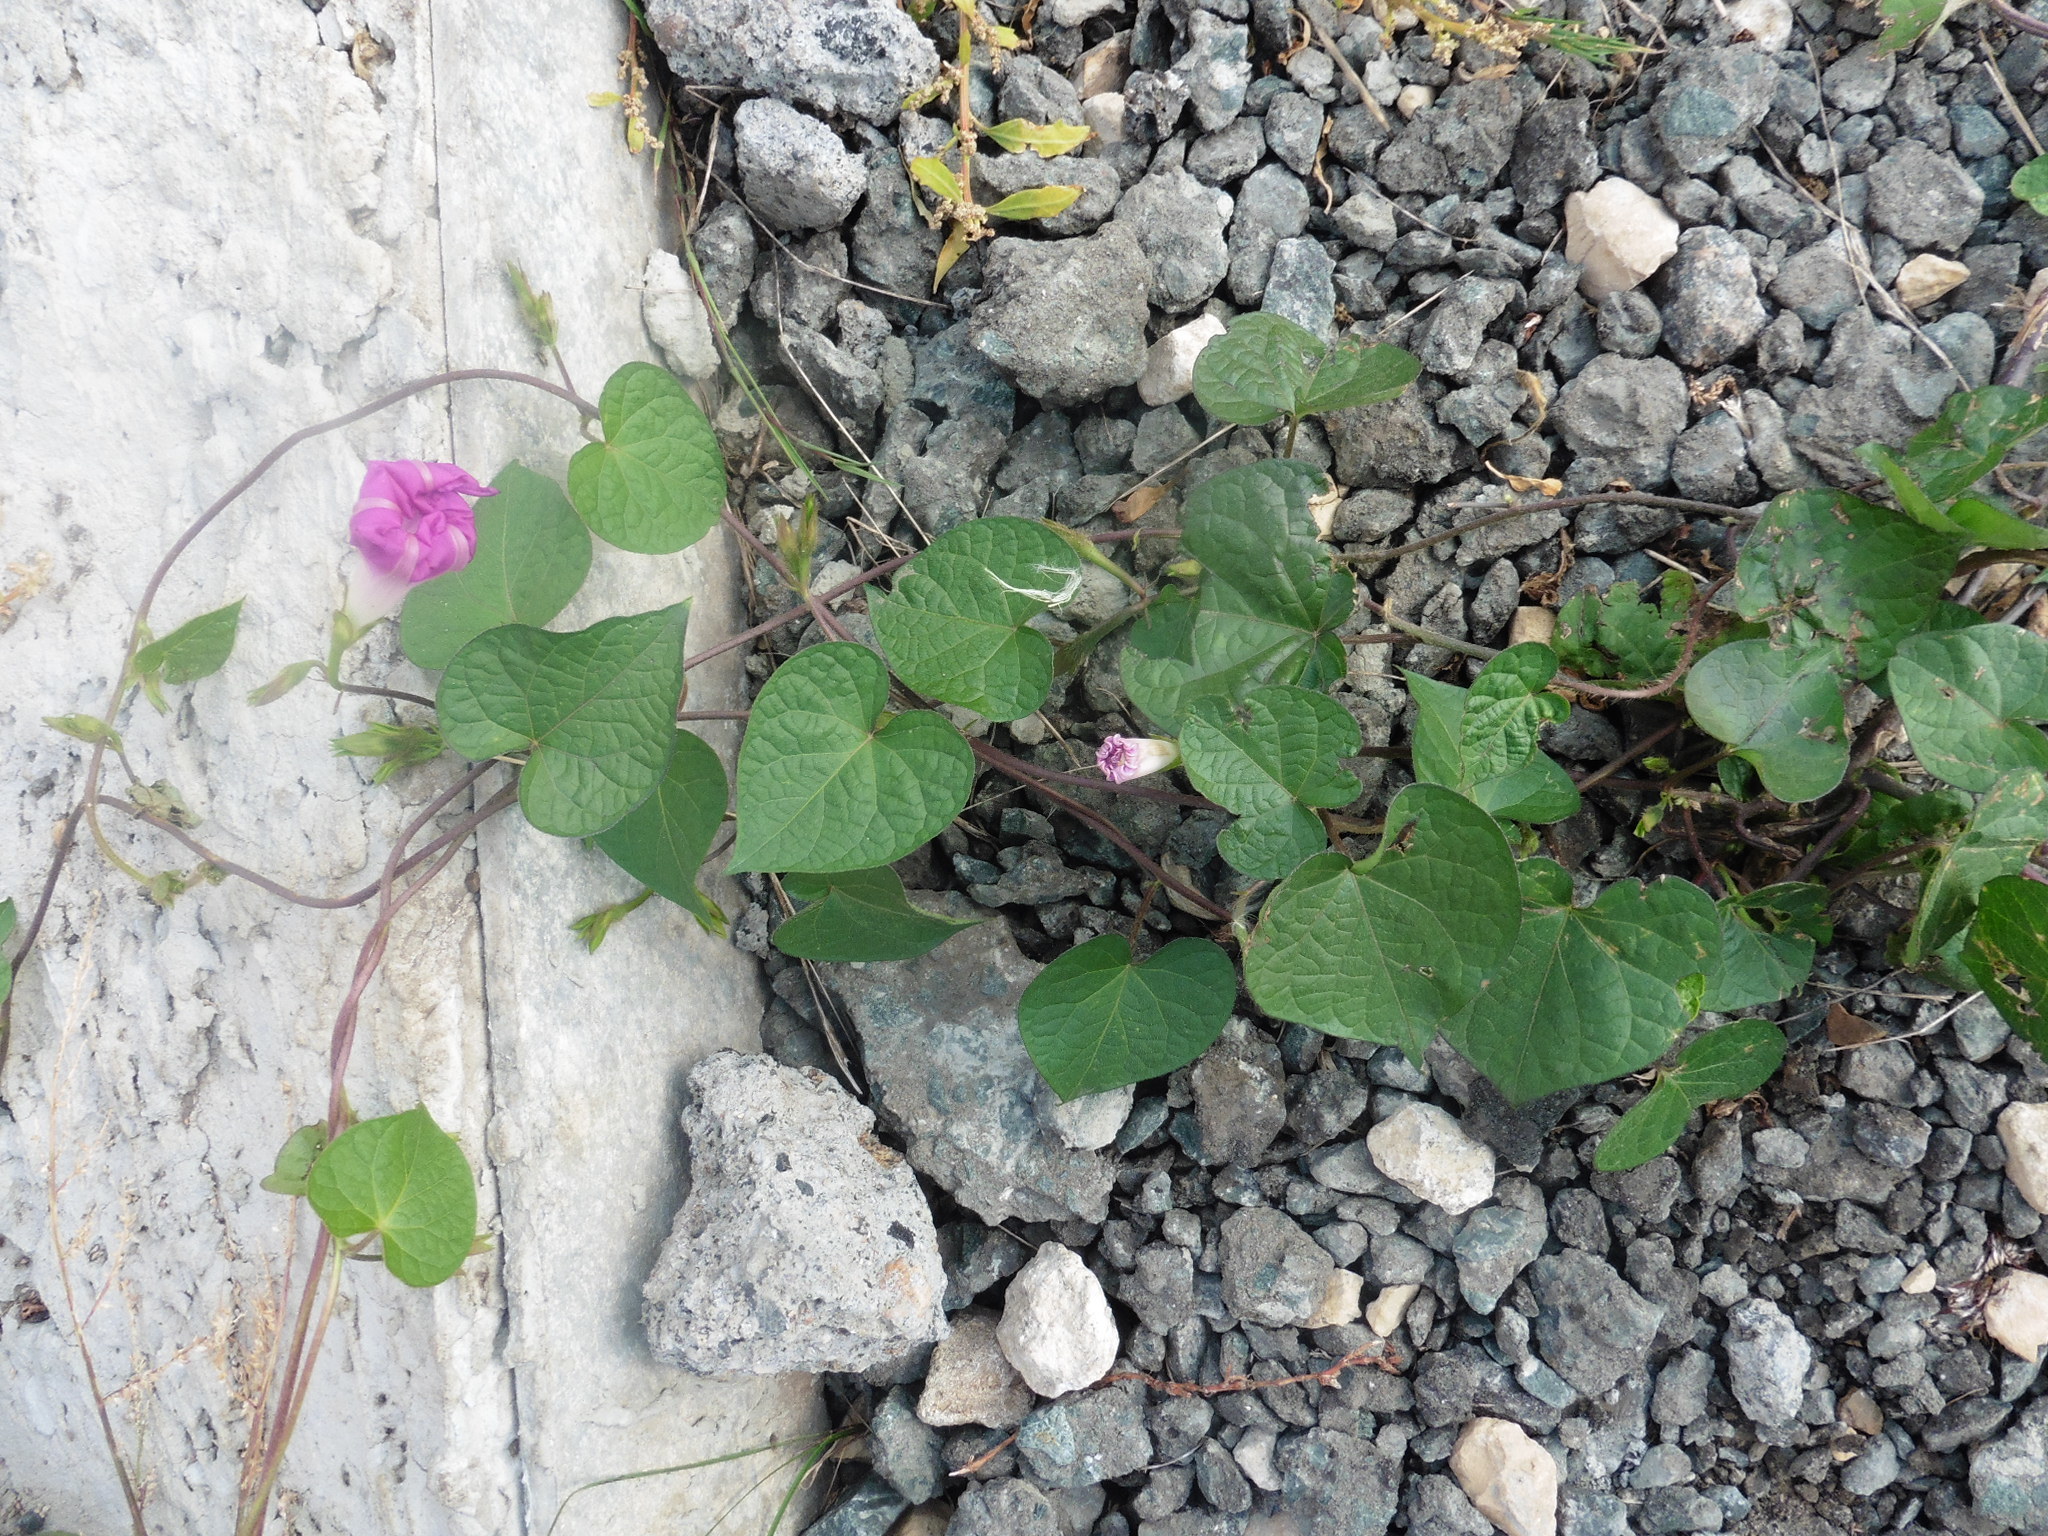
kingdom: Plantae
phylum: Tracheophyta
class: Magnoliopsida
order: Solanales
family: Convolvulaceae
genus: Ipomoea
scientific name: Ipomoea purpurea
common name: Common morning-glory
